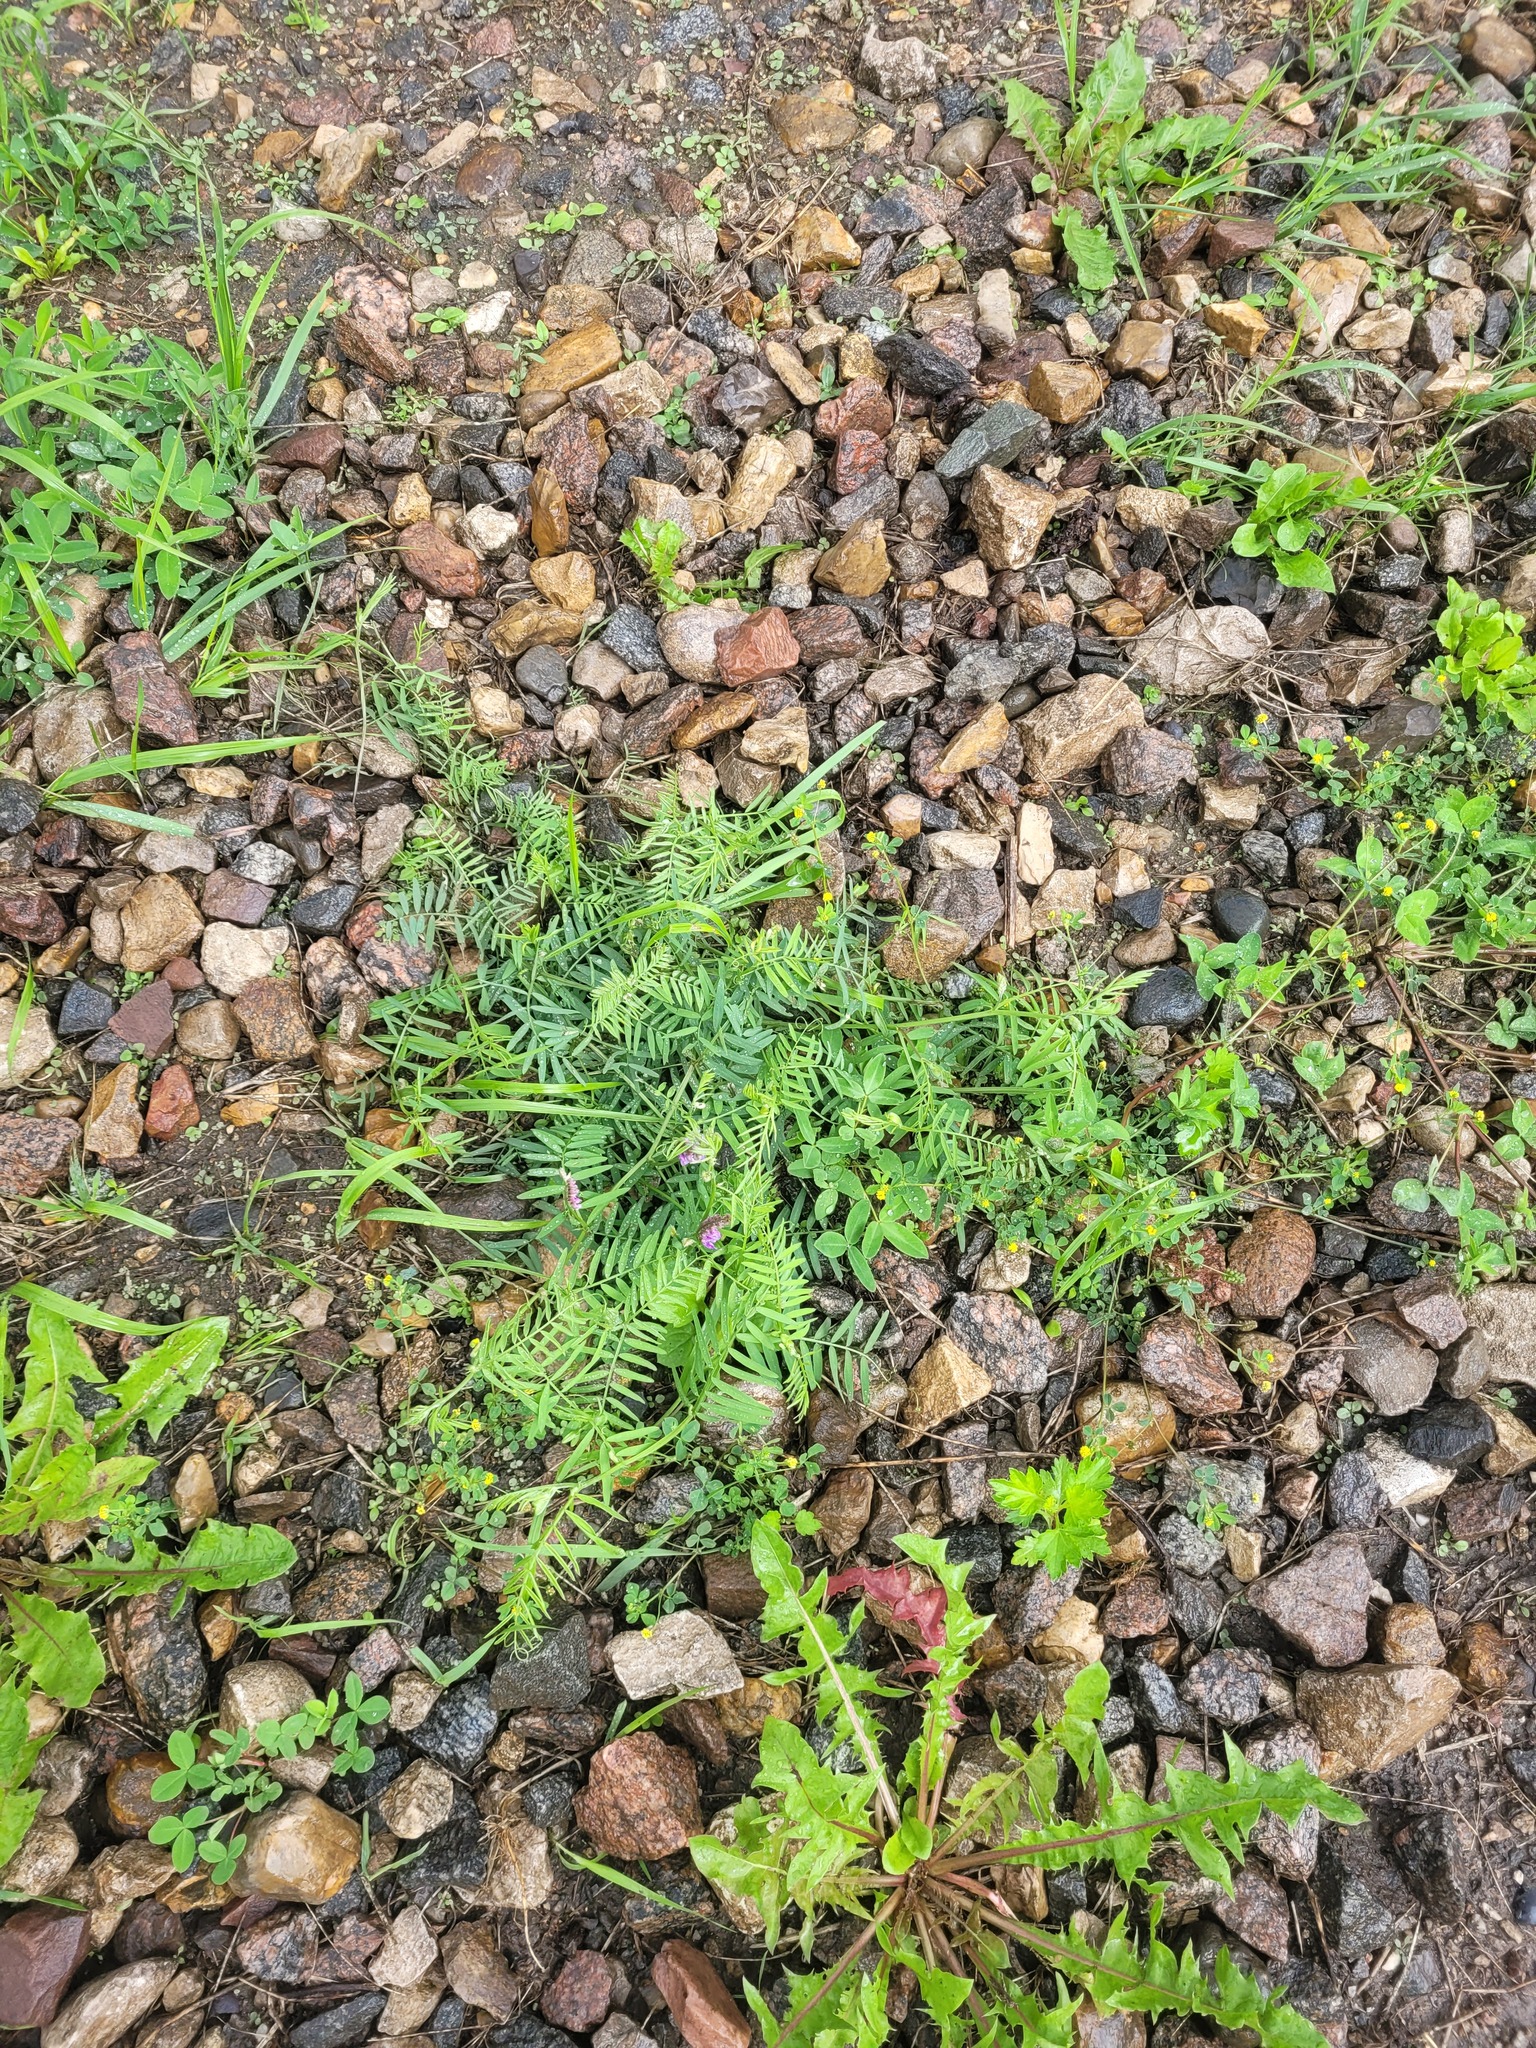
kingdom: Plantae
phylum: Tracheophyta
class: Magnoliopsida
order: Fabales
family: Fabaceae
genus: Vicia
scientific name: Vicia cracca
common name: Bird vetch
